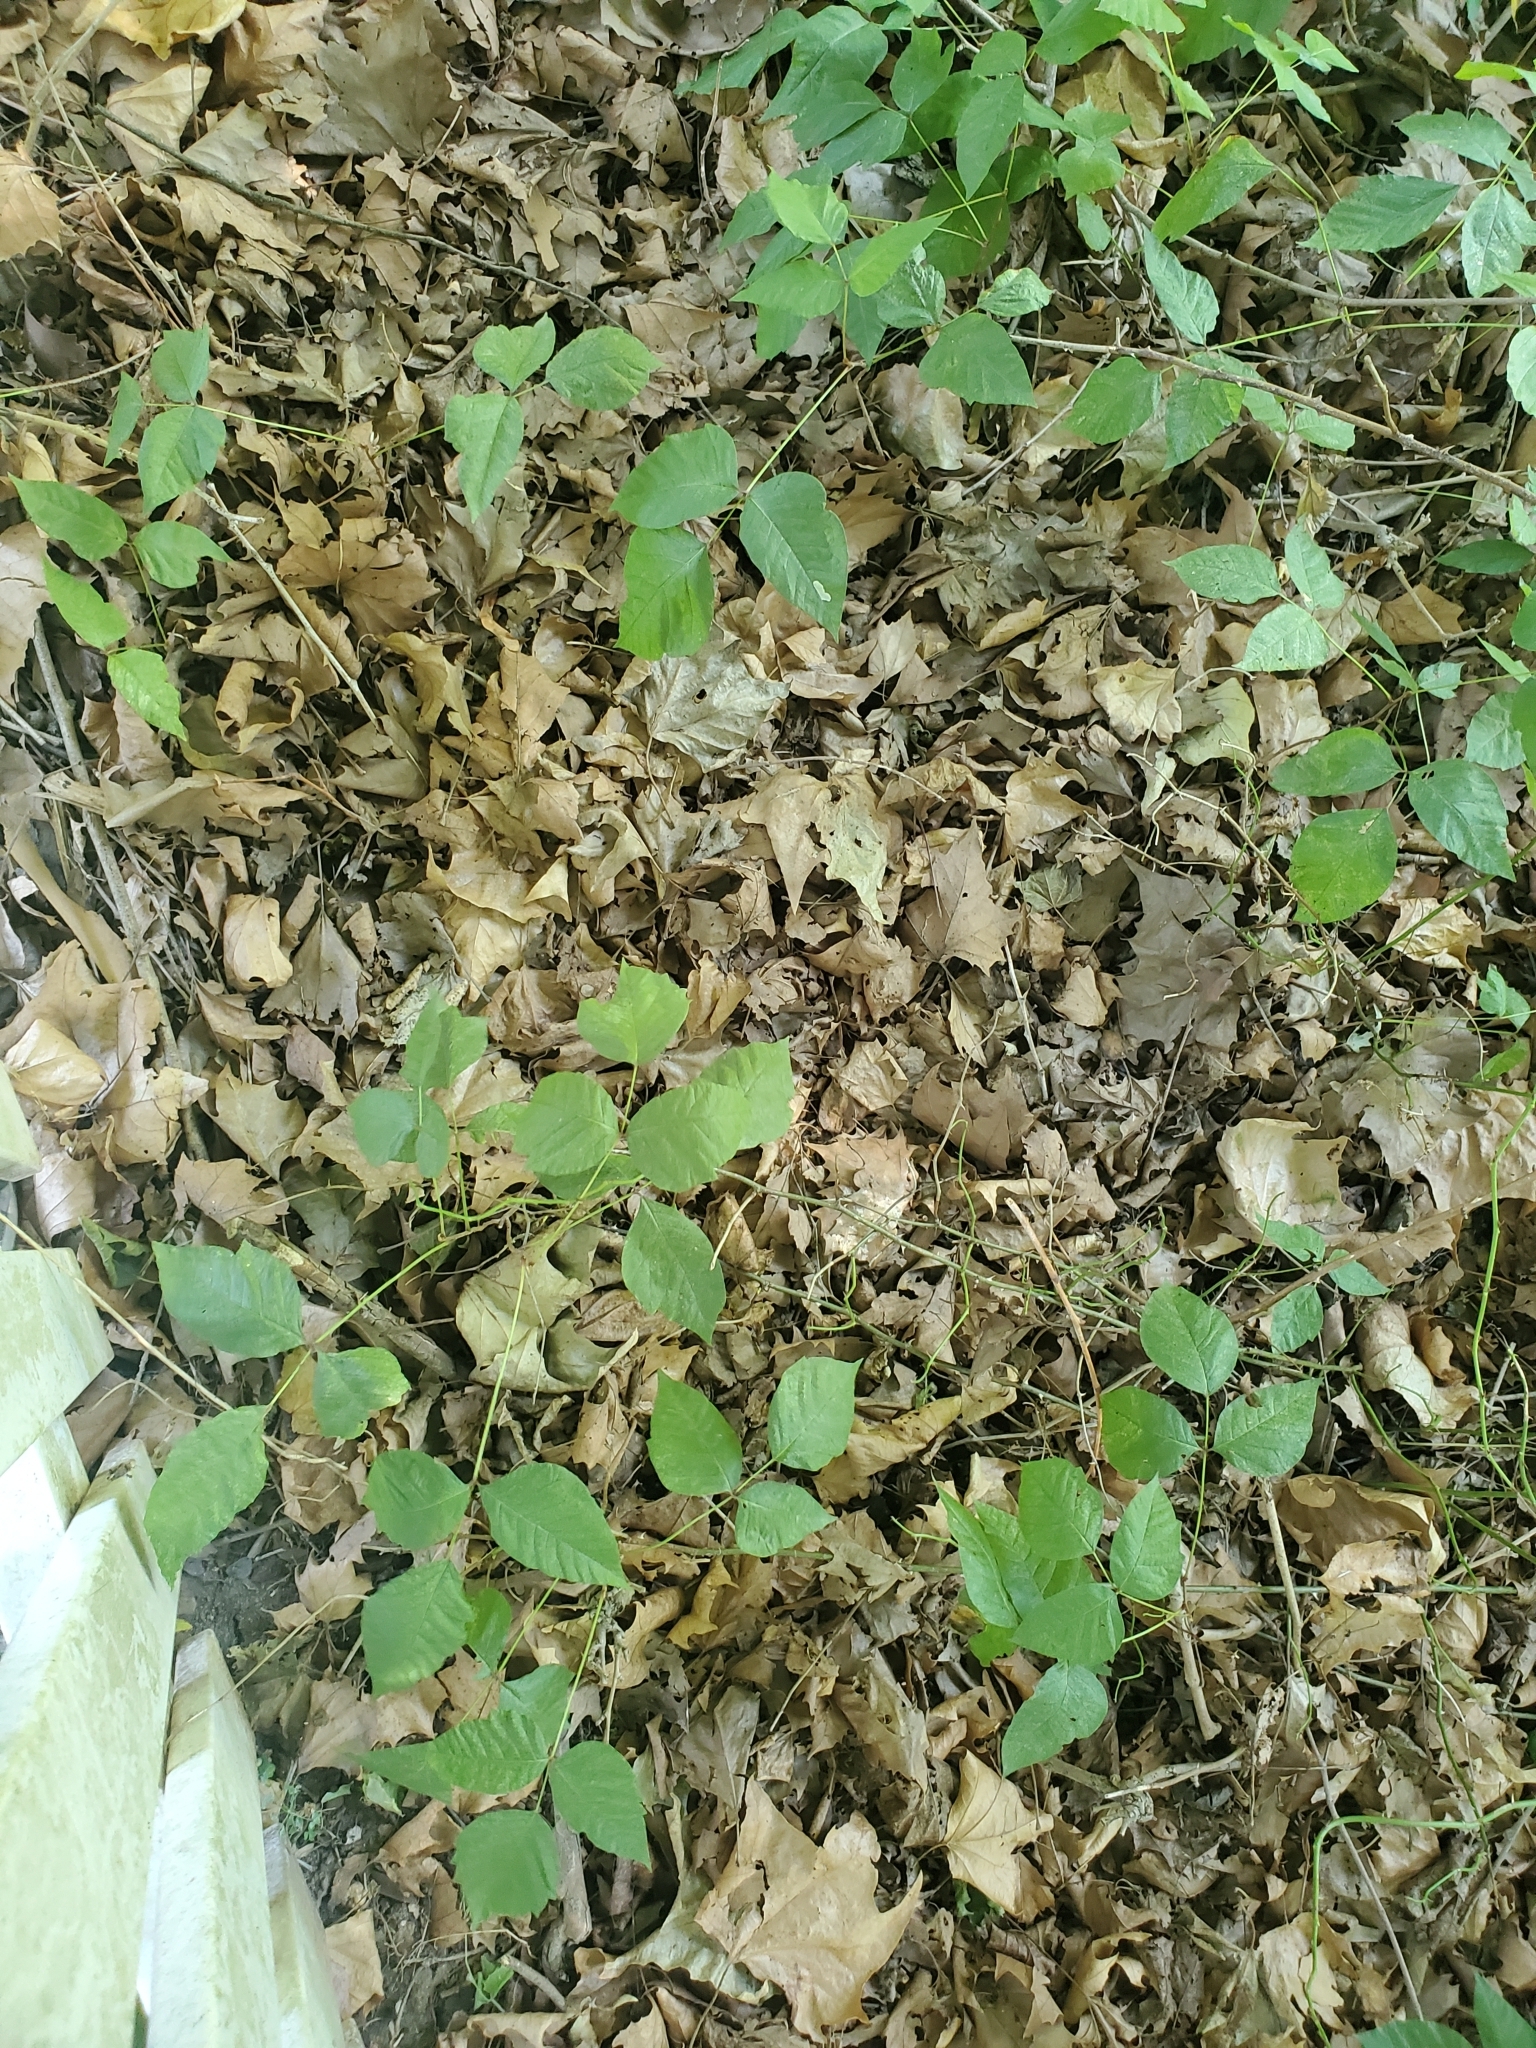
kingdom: Plantae
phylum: Tracheophyta
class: Magnoliopsida
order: Sapindales
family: Anacardiaceae
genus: Toxicodendron
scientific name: Toxicodendron radicans
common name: Poison ivy
